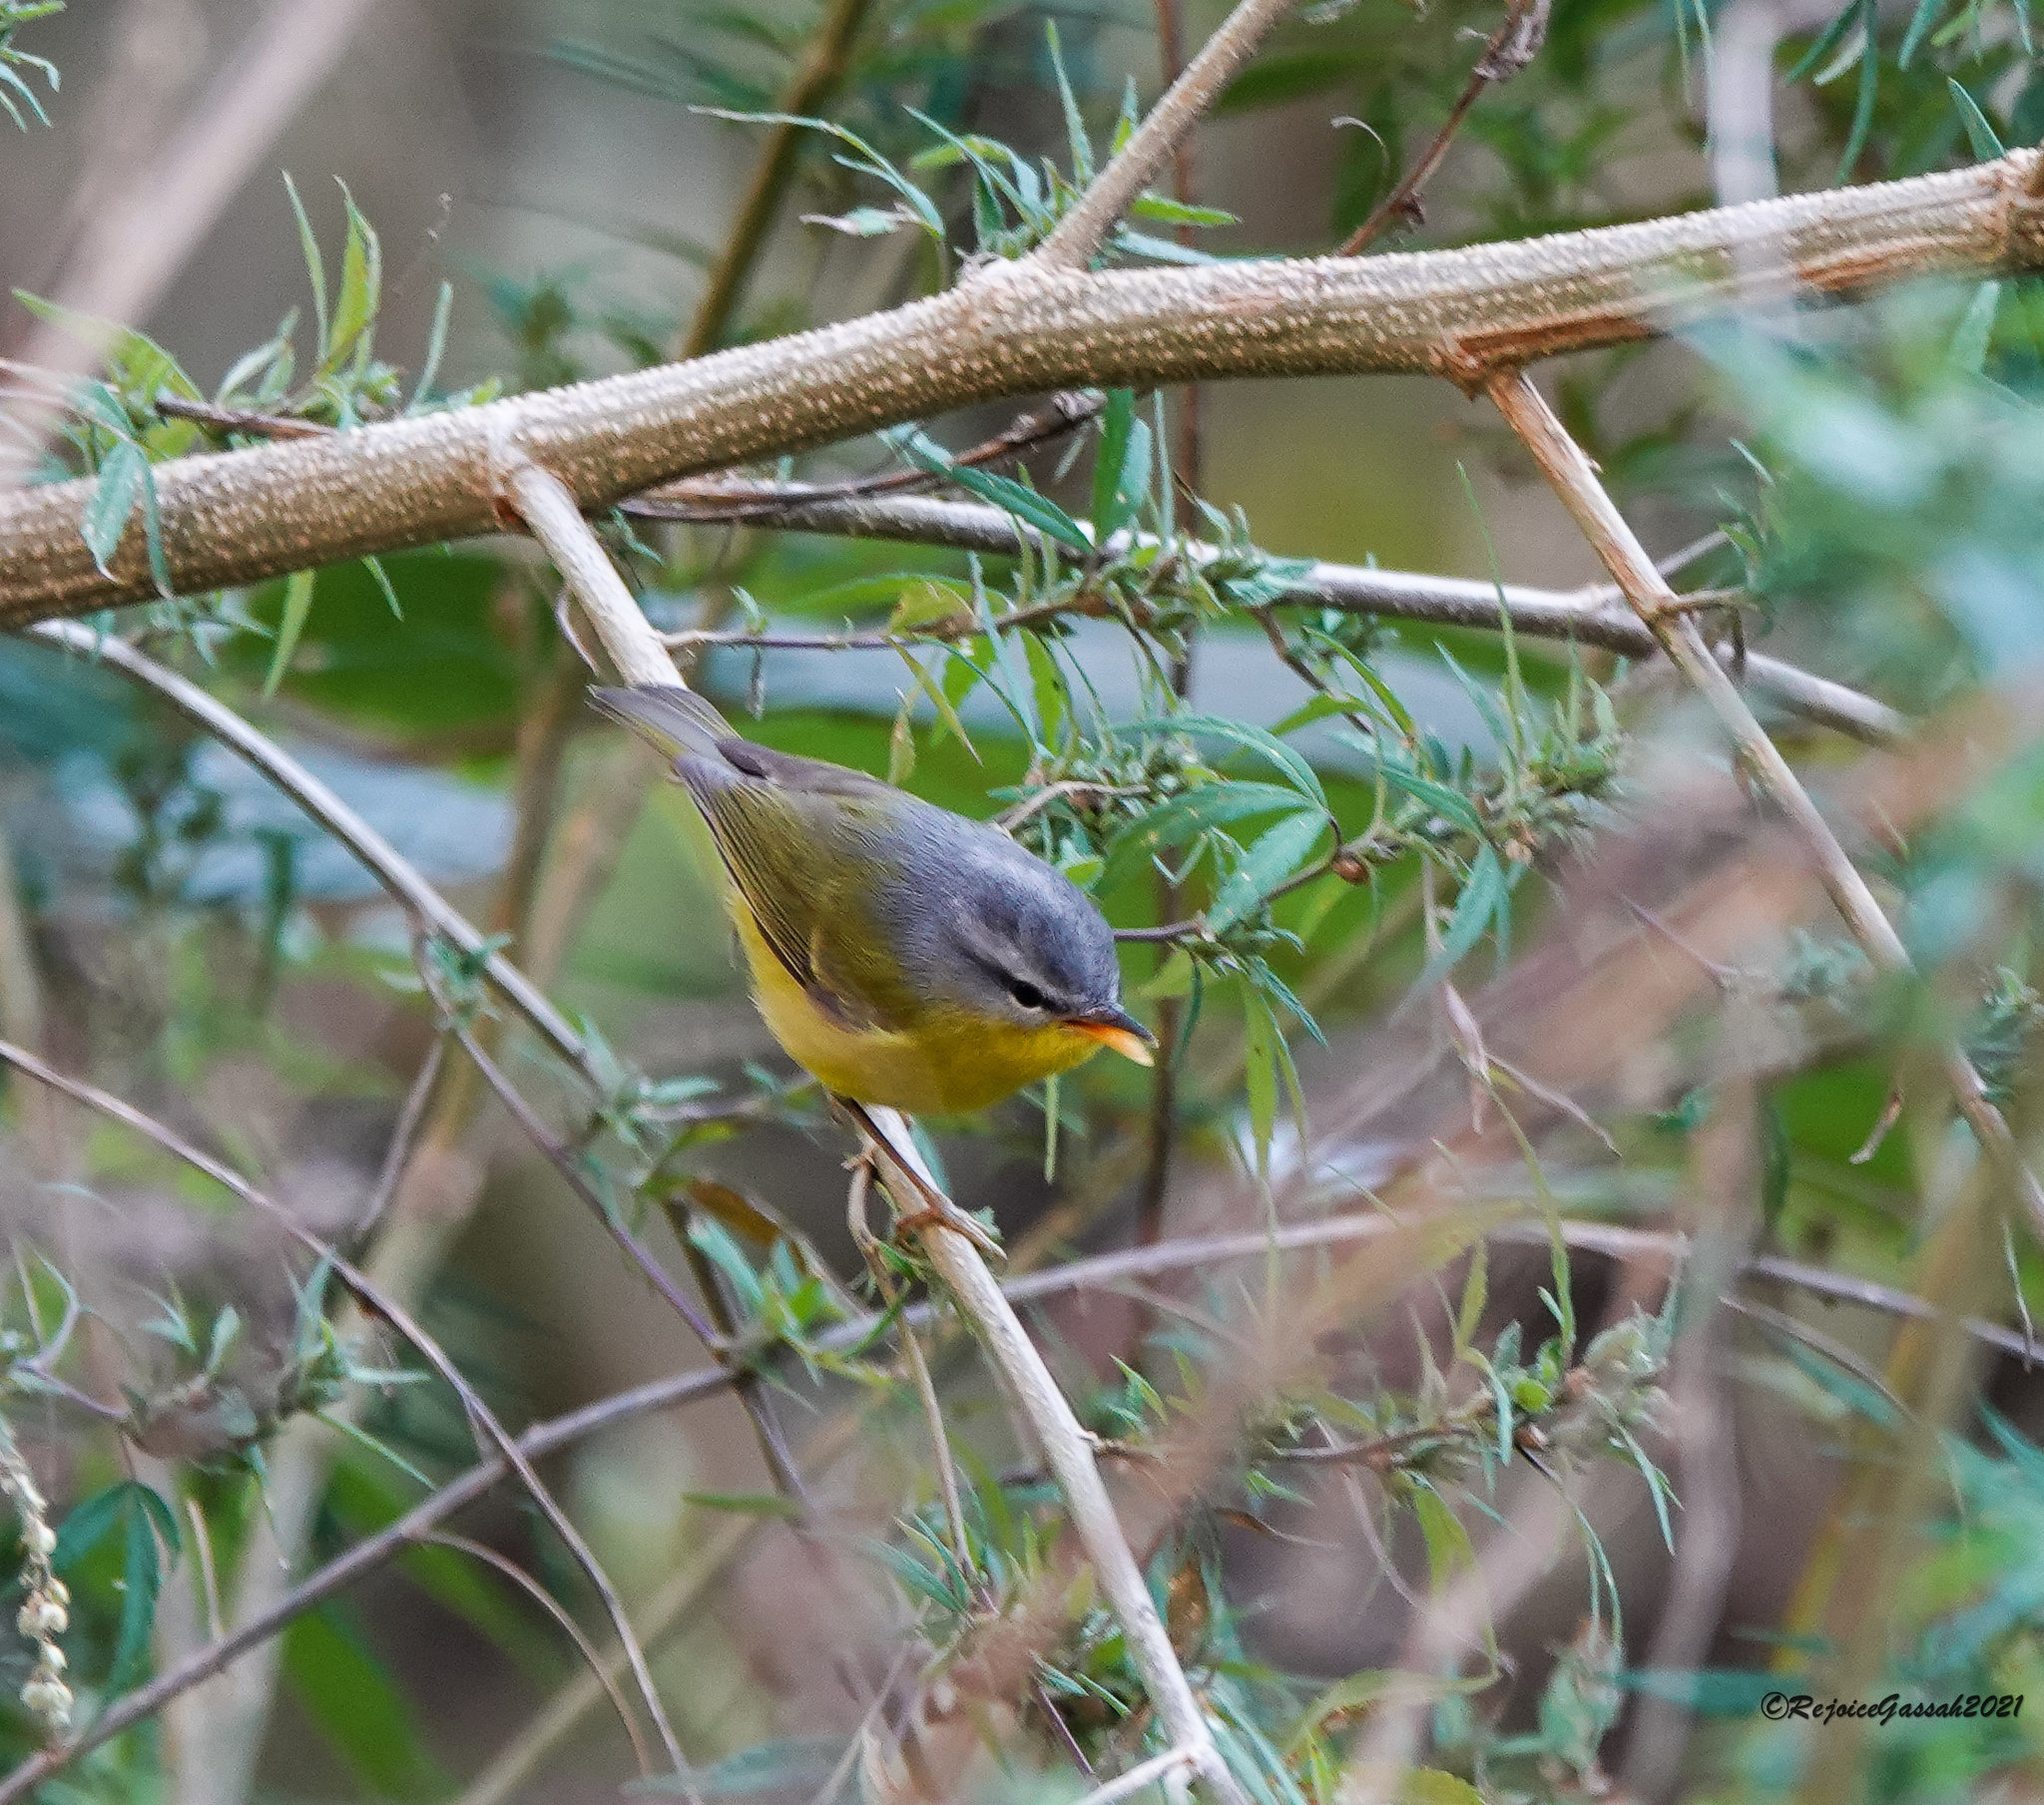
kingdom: Animalia
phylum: Chordata
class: Aves
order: Passeriformes
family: Phylloscopidae
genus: Phylloscopus
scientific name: Phylloscopus xanthoschistos
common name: Grey-hooded warbler
